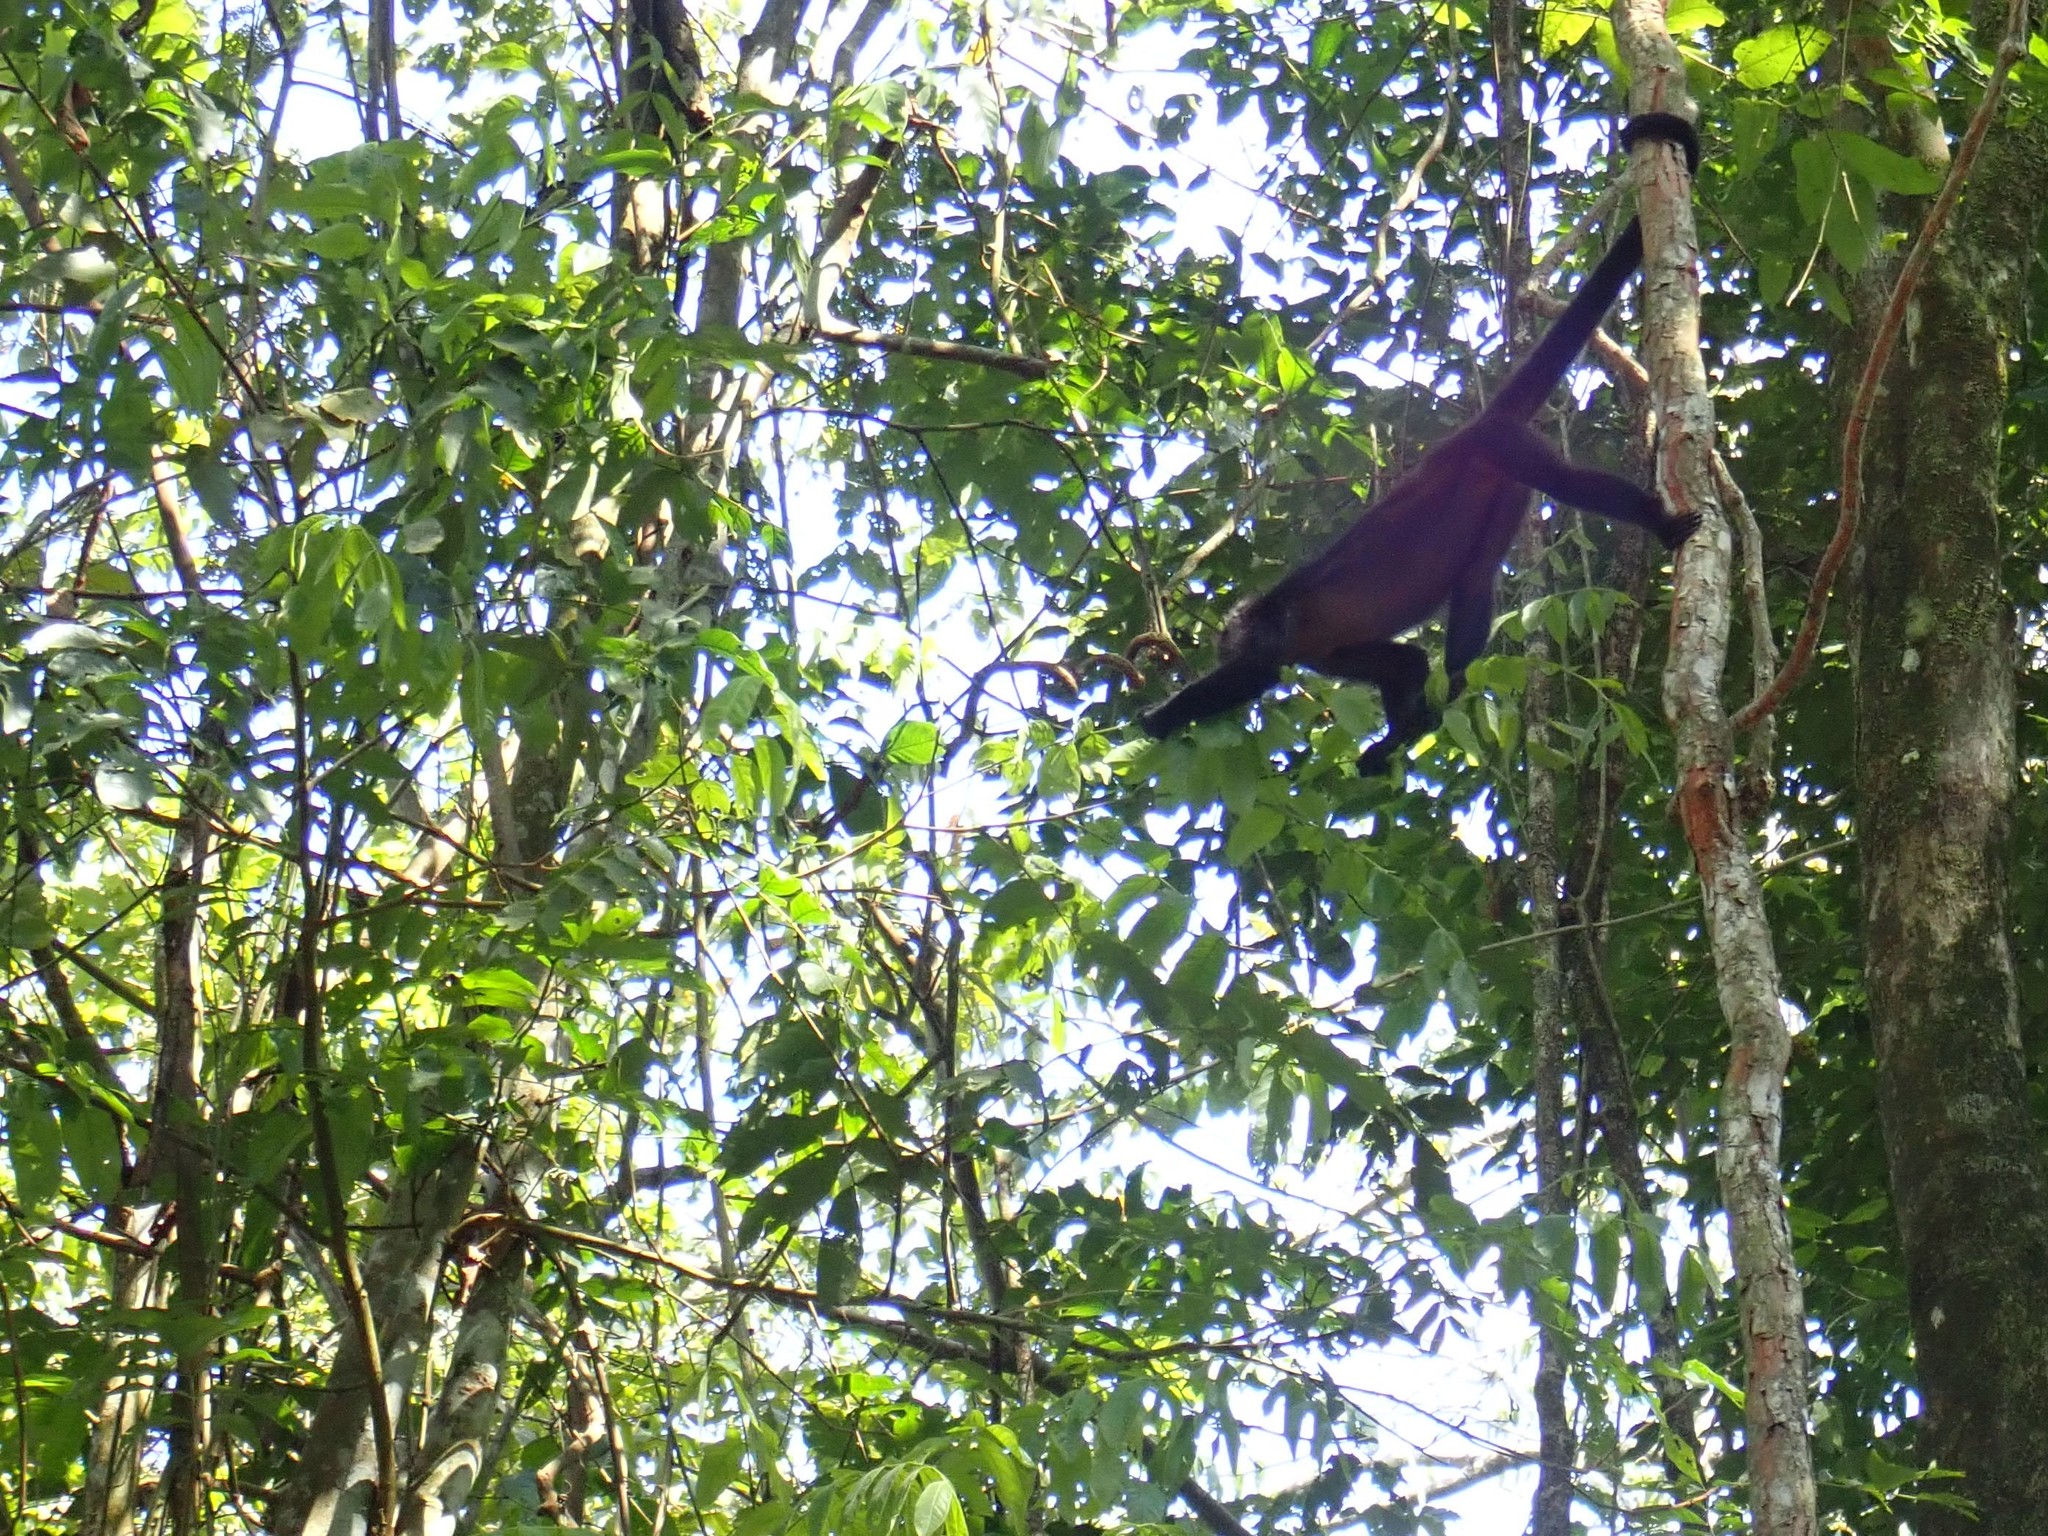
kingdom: Animalia
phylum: Chordata
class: Mammalia
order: Primates
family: Atelidae
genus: Ateles
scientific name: Ateles geoffroyi
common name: Black-handed spider monkey
